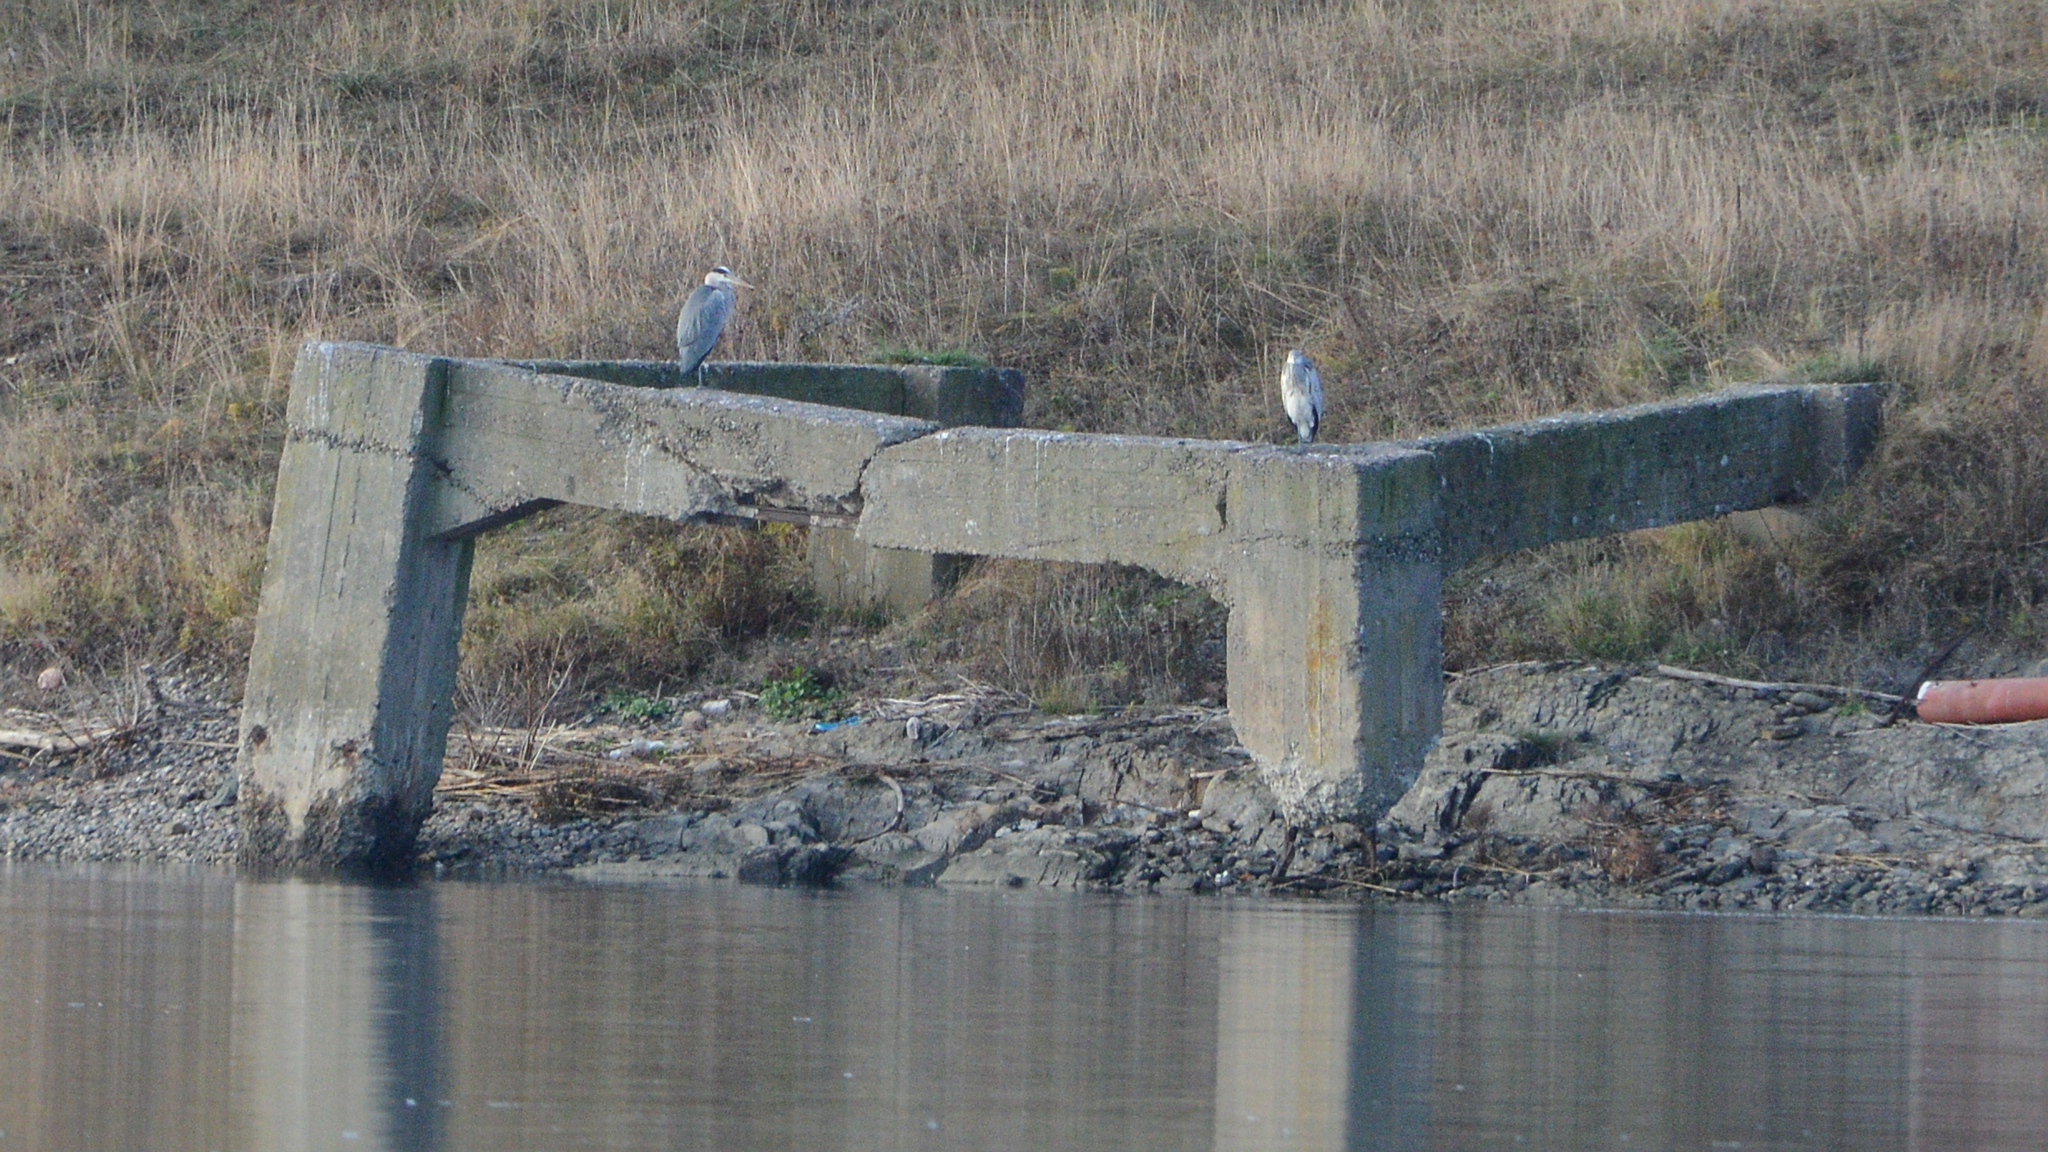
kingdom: Animalia
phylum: Chordata
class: Aves
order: Pelecaniformes
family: Ardeidae
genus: Ardea
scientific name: Ardea cinerea
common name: Grey heron
